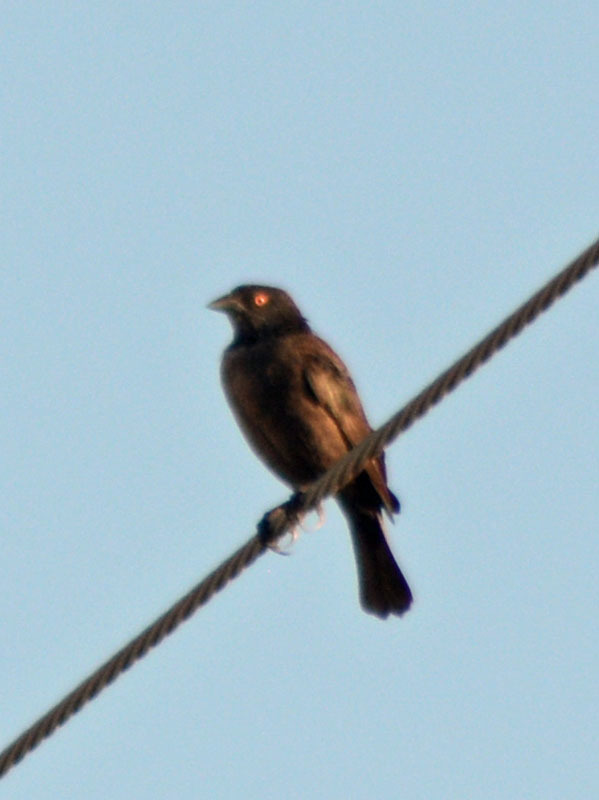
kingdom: Animalia
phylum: Chordata
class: Aves
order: Passeriformes
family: Icteridae
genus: Molothrus
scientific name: Molothrus aeneus
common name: Bronzed cowbird
